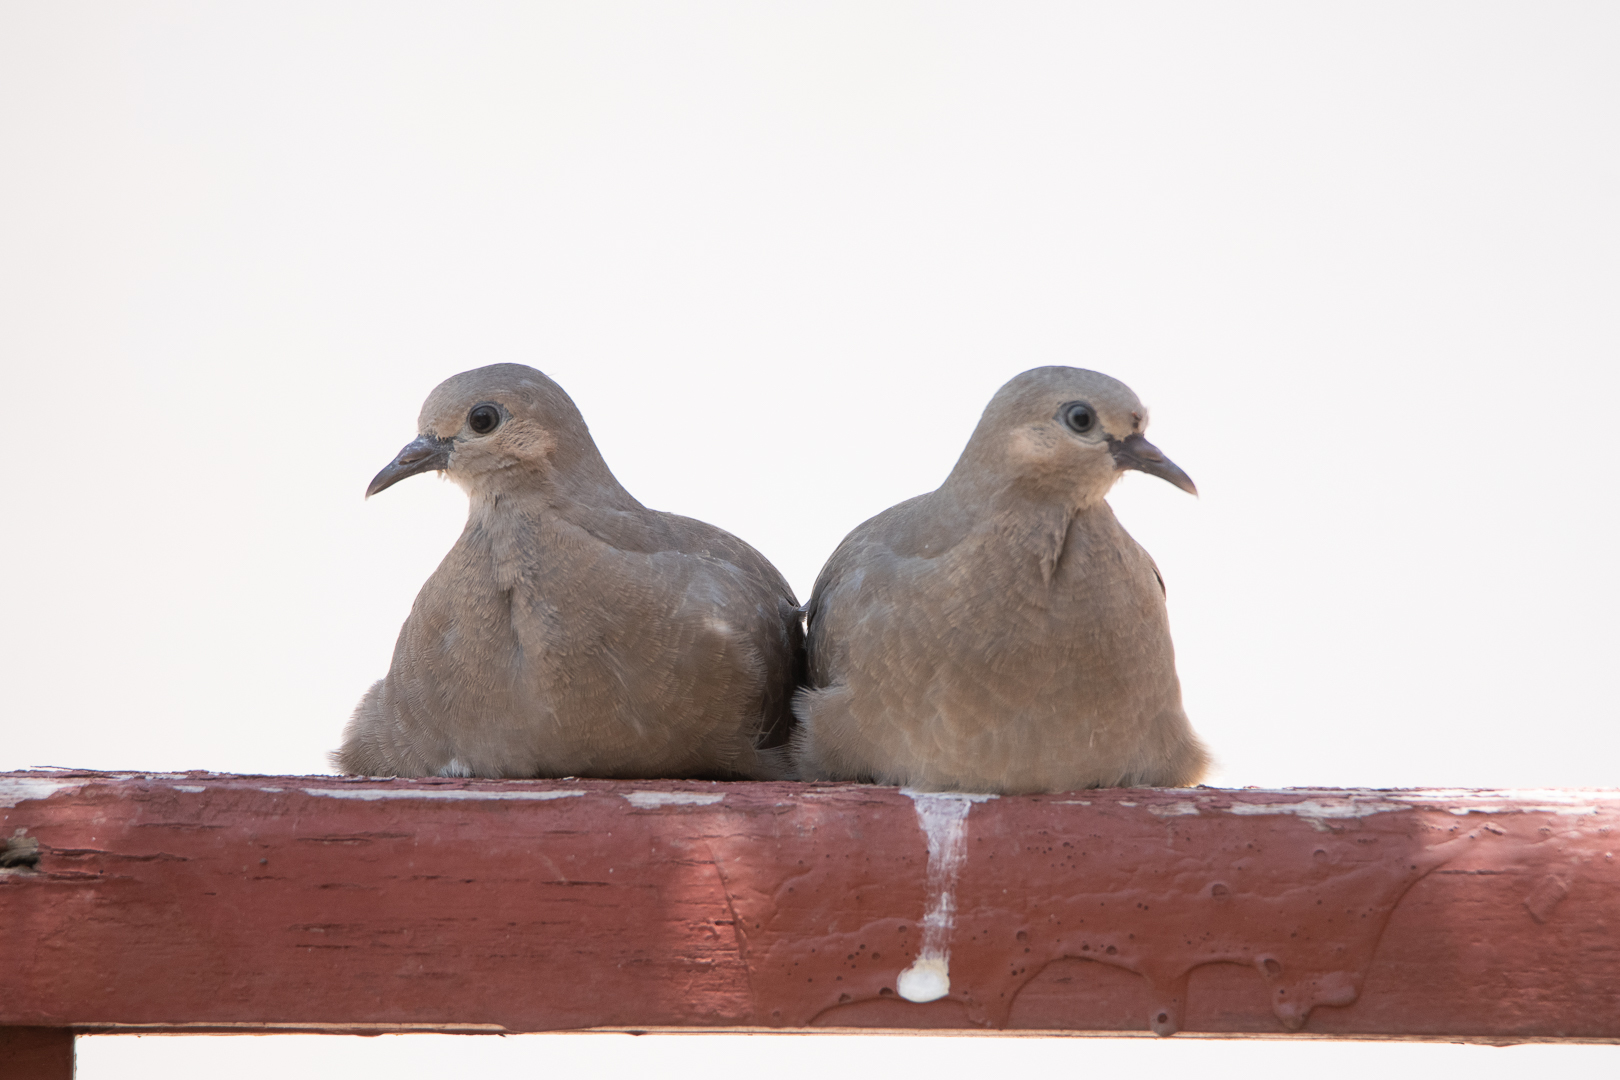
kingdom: Animalia
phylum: Chordata
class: Aves
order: Columbiformes
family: Columbidae
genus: Metriopelia
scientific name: Metriopelia melanoptera
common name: Black-winged ground dove
